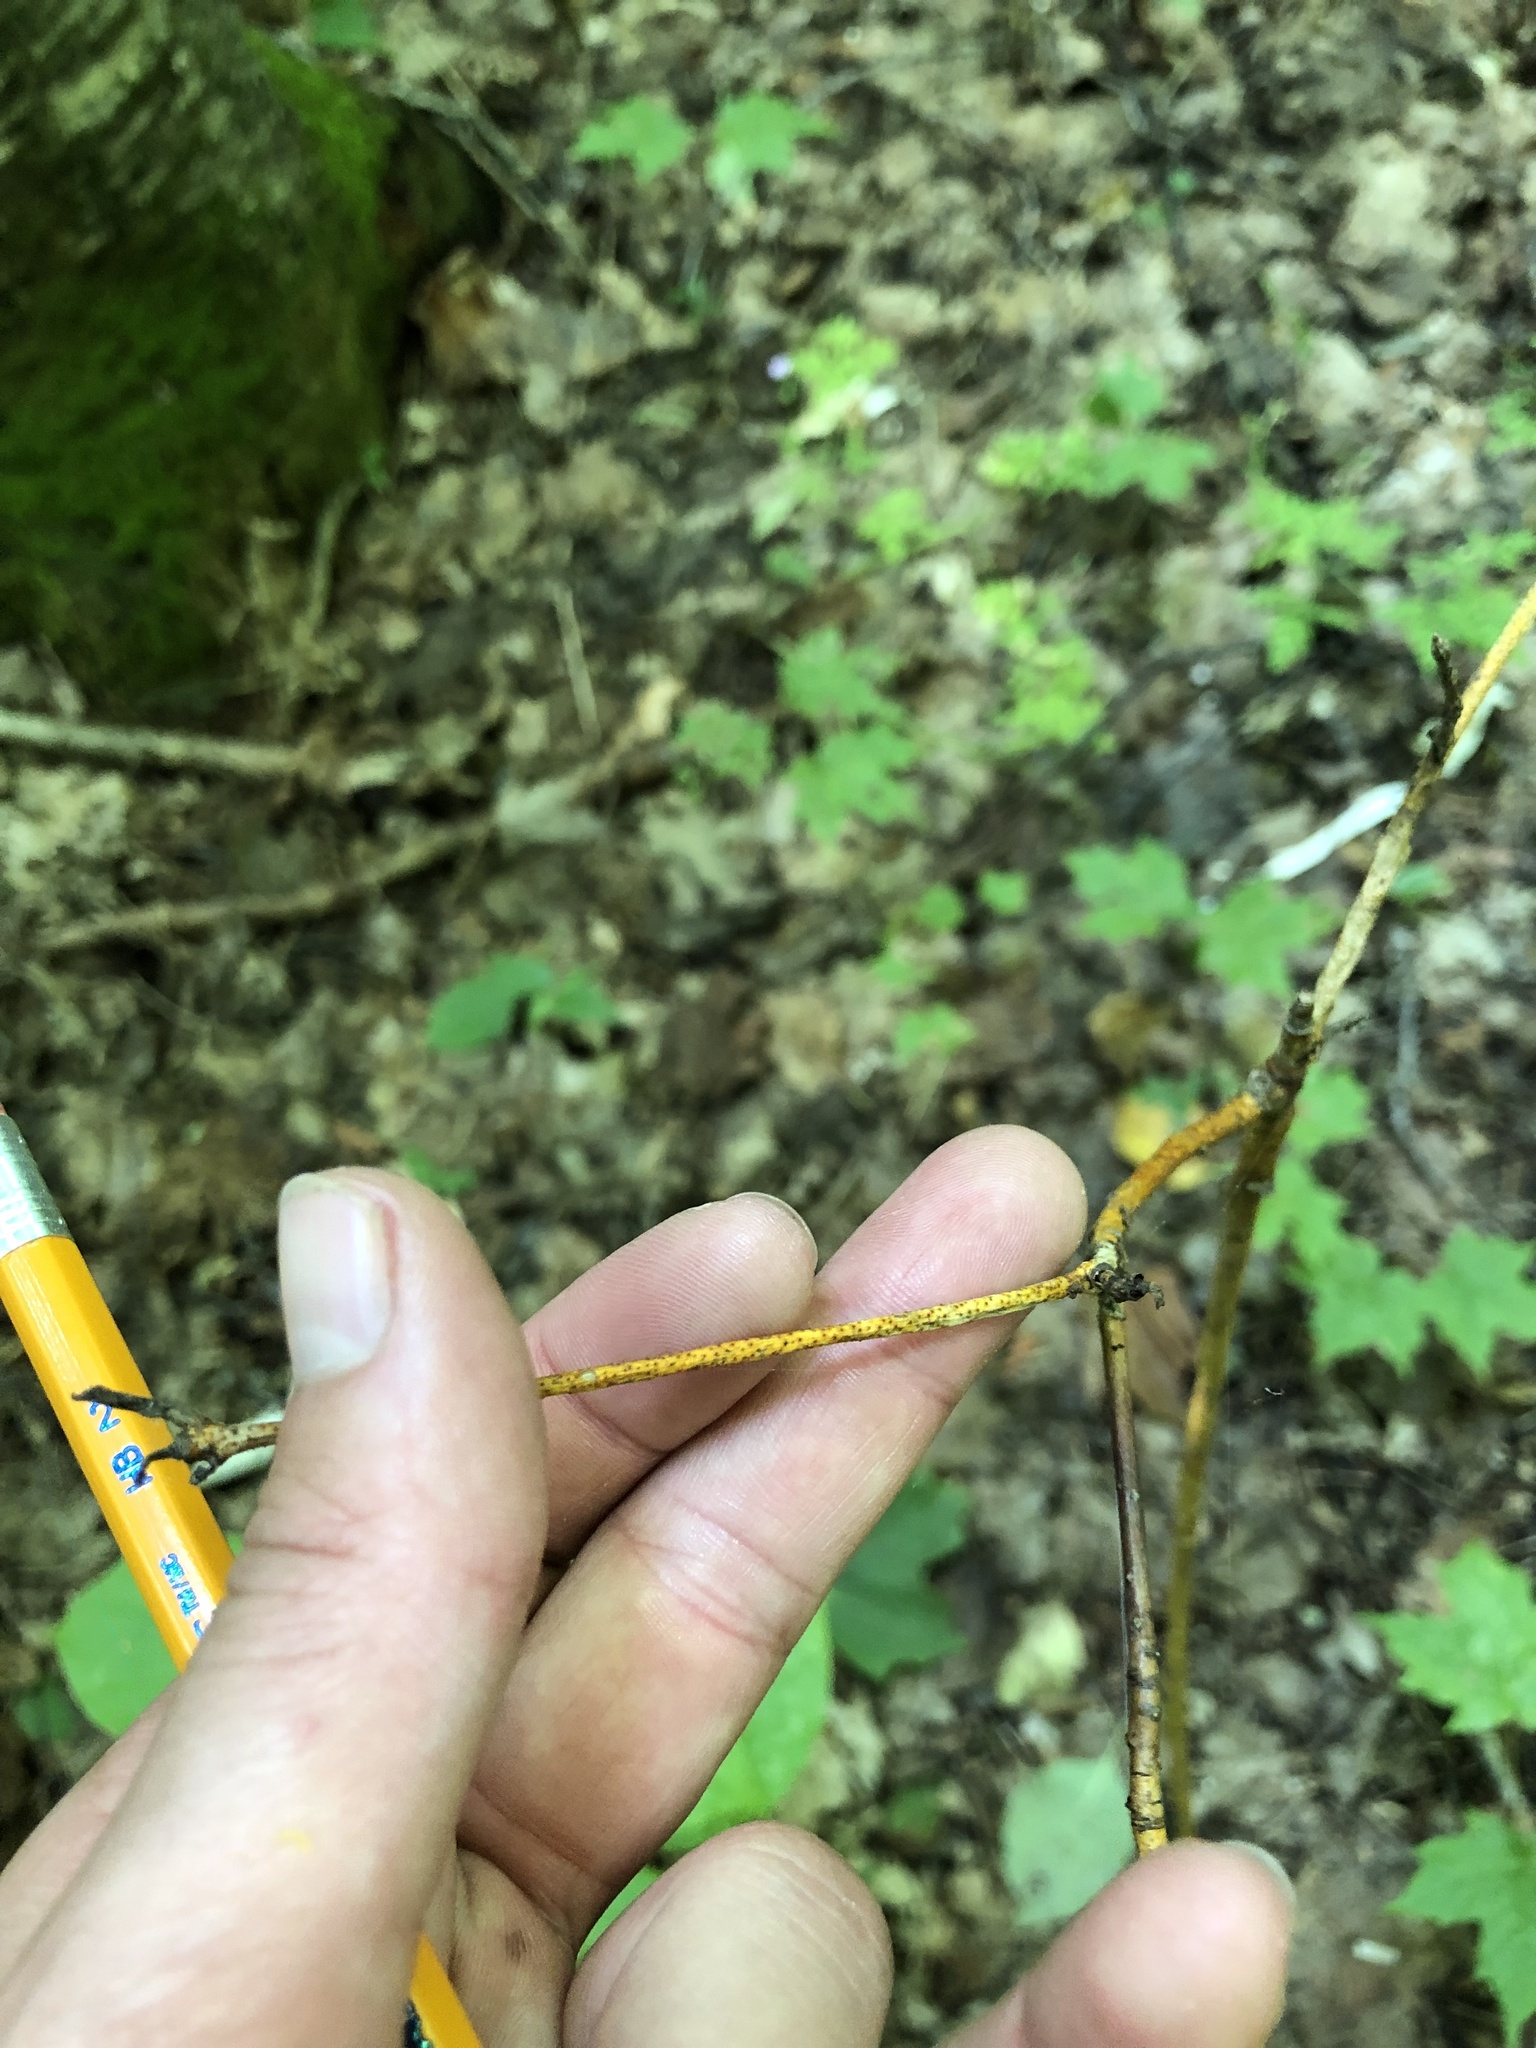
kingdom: Fungi
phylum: Ascomycota
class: Sordariomycetes
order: Diaporthales
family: Cryphonectriaceae
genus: Aurantioporthe
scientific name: Aurantioporthe corni
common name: Dogwood golden canker
